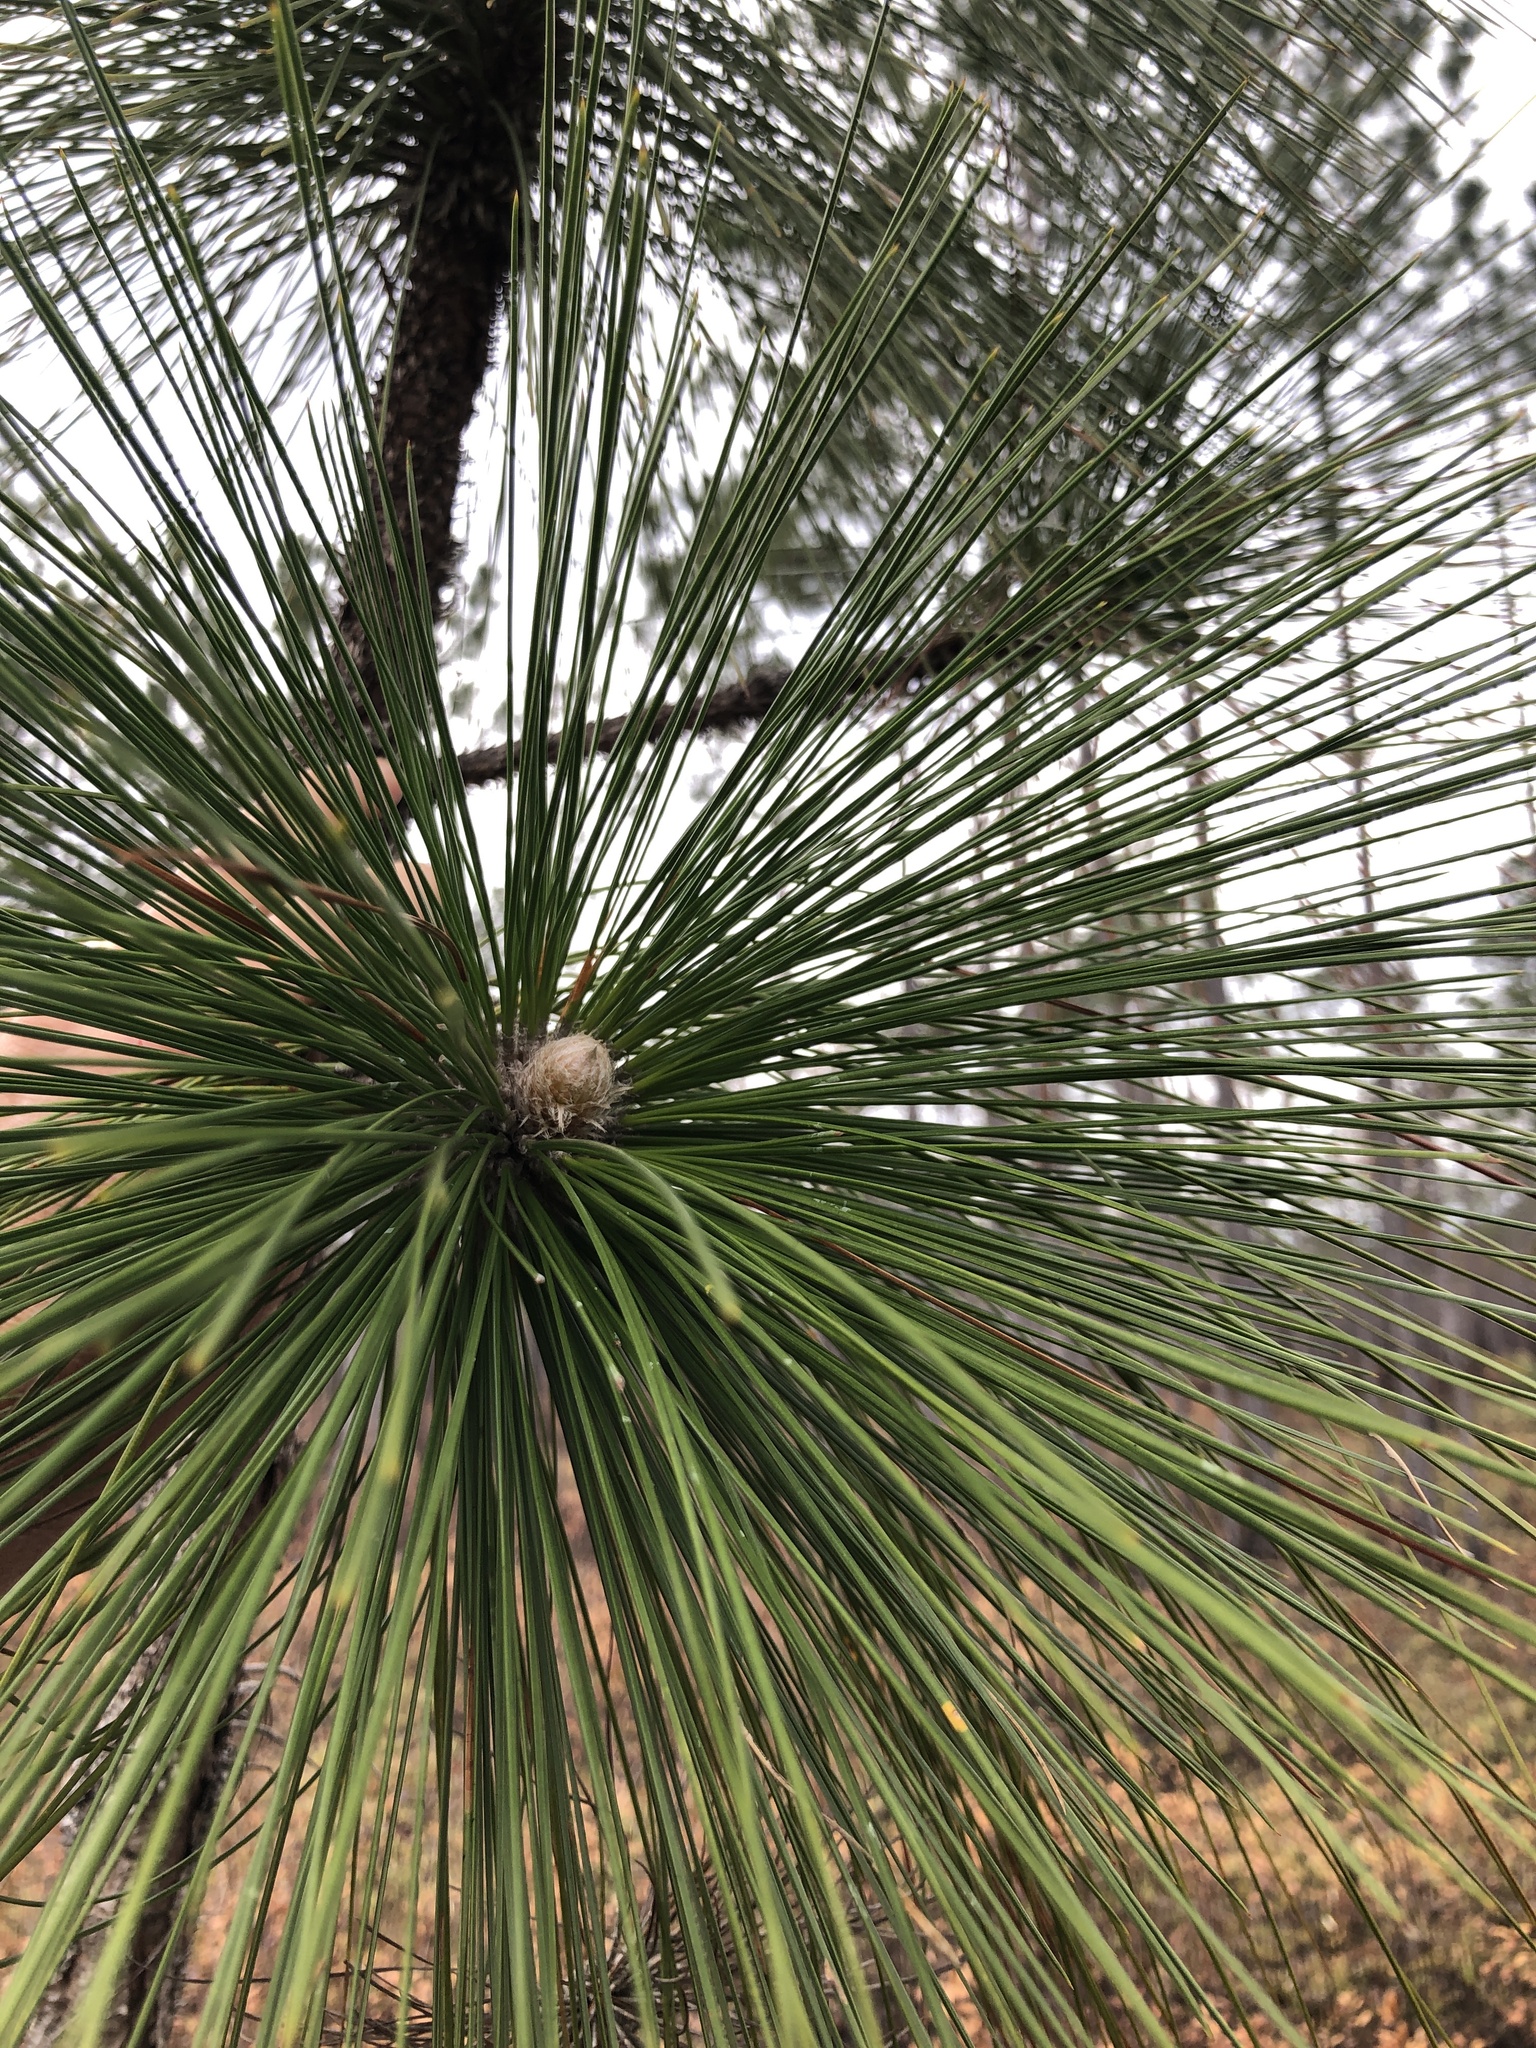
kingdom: Plantae
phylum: Tracheophyta
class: Pinopsida
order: Pinales
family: Pinaceae
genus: Pinus
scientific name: Pinus palustris
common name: Longleaf pine
